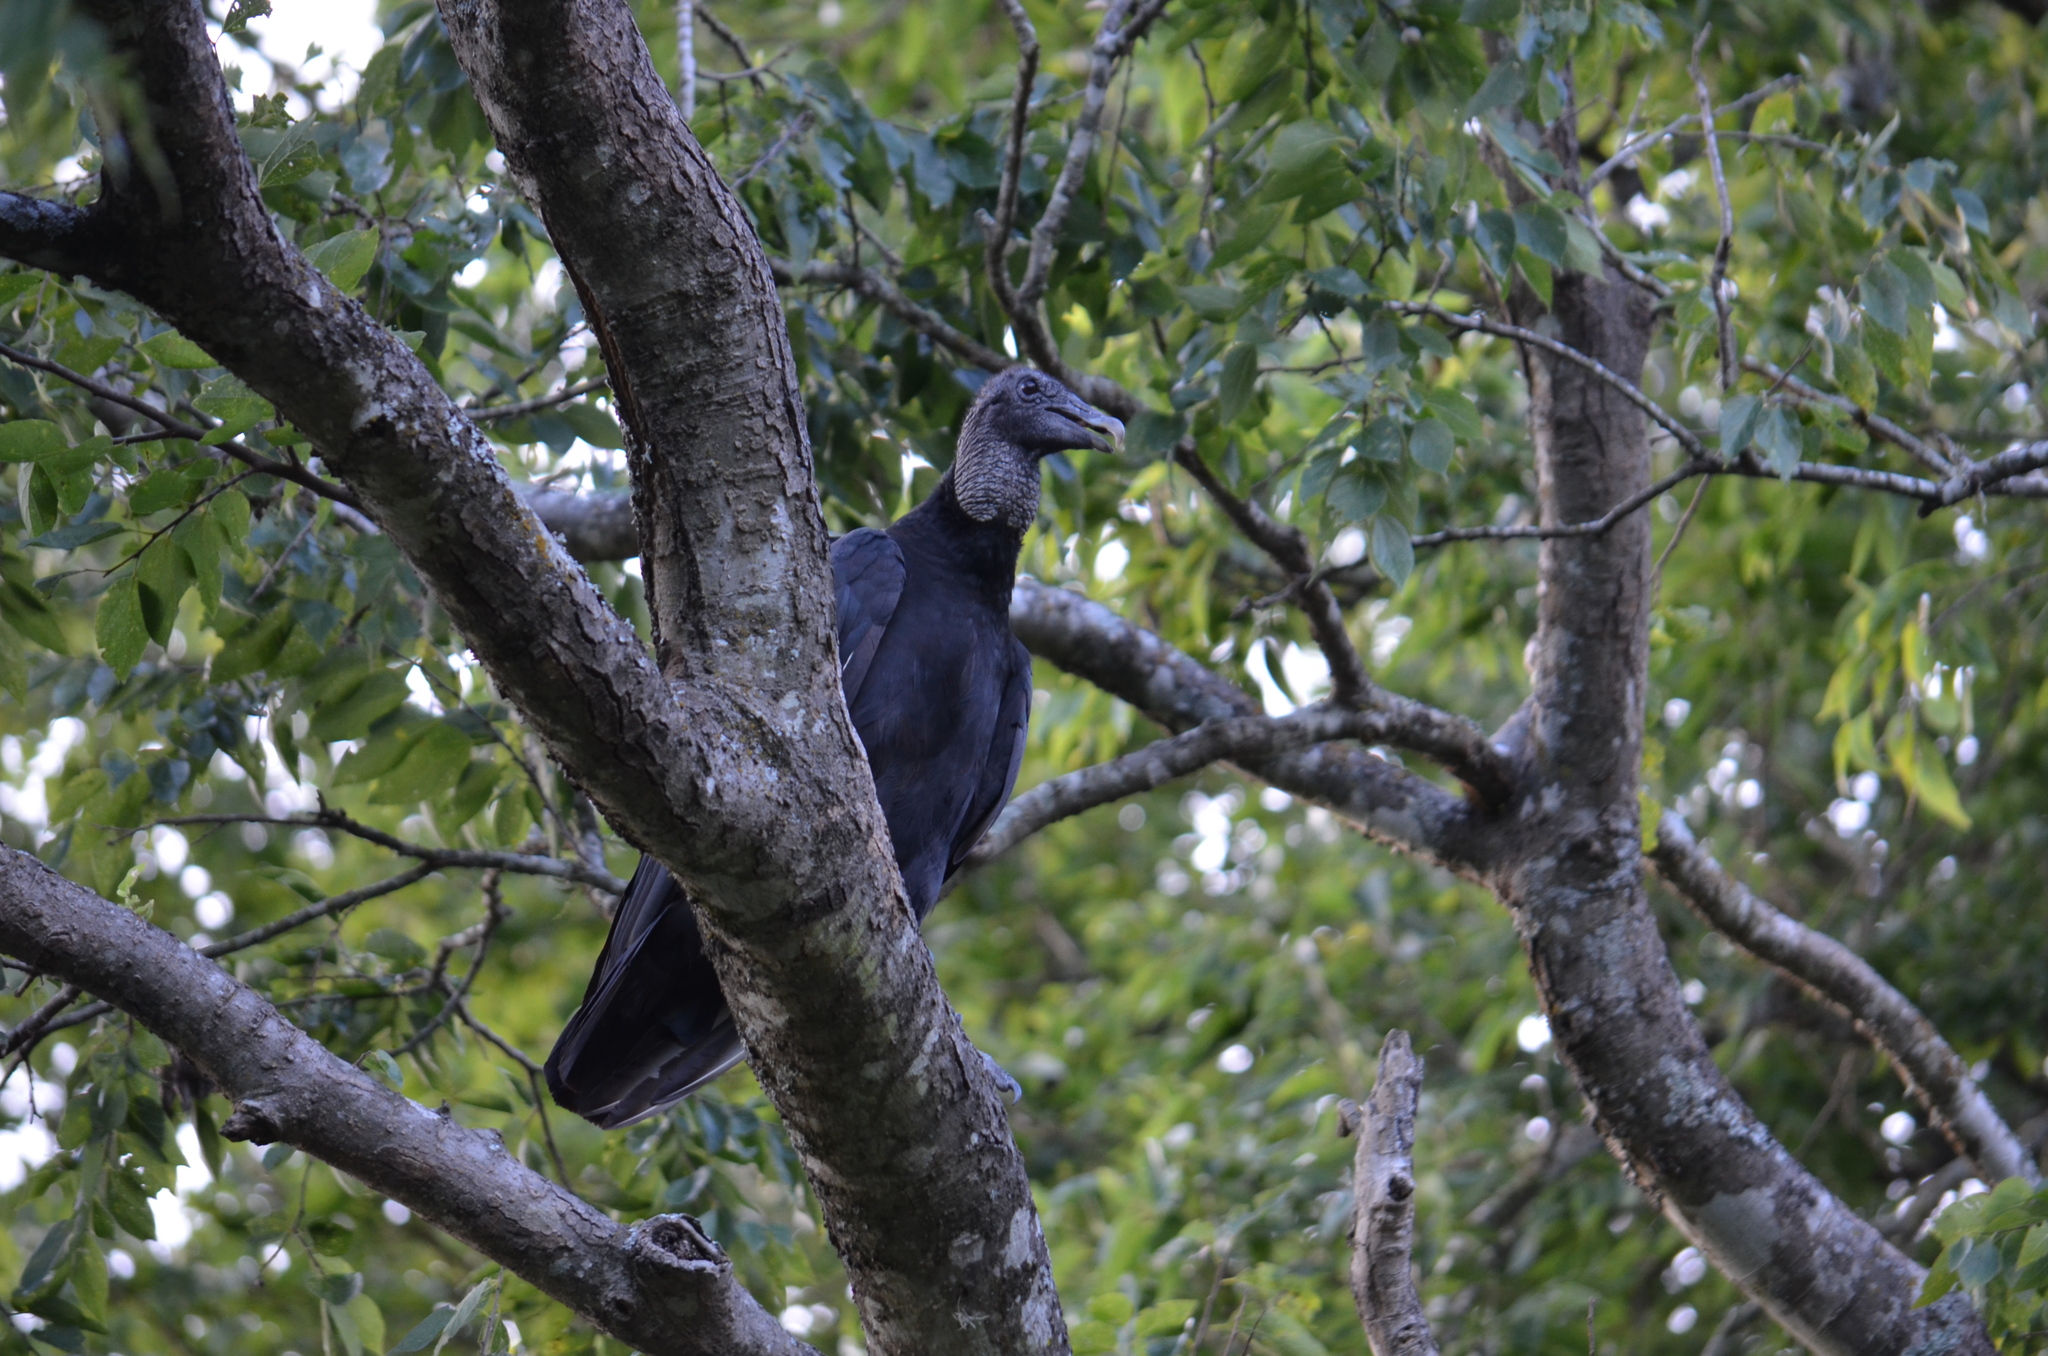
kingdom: Animalia
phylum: Chordata
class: Aves
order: Accipitriformes
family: Cathartidae
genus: Coragyps
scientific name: Coragyps atratus
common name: Black vulture
